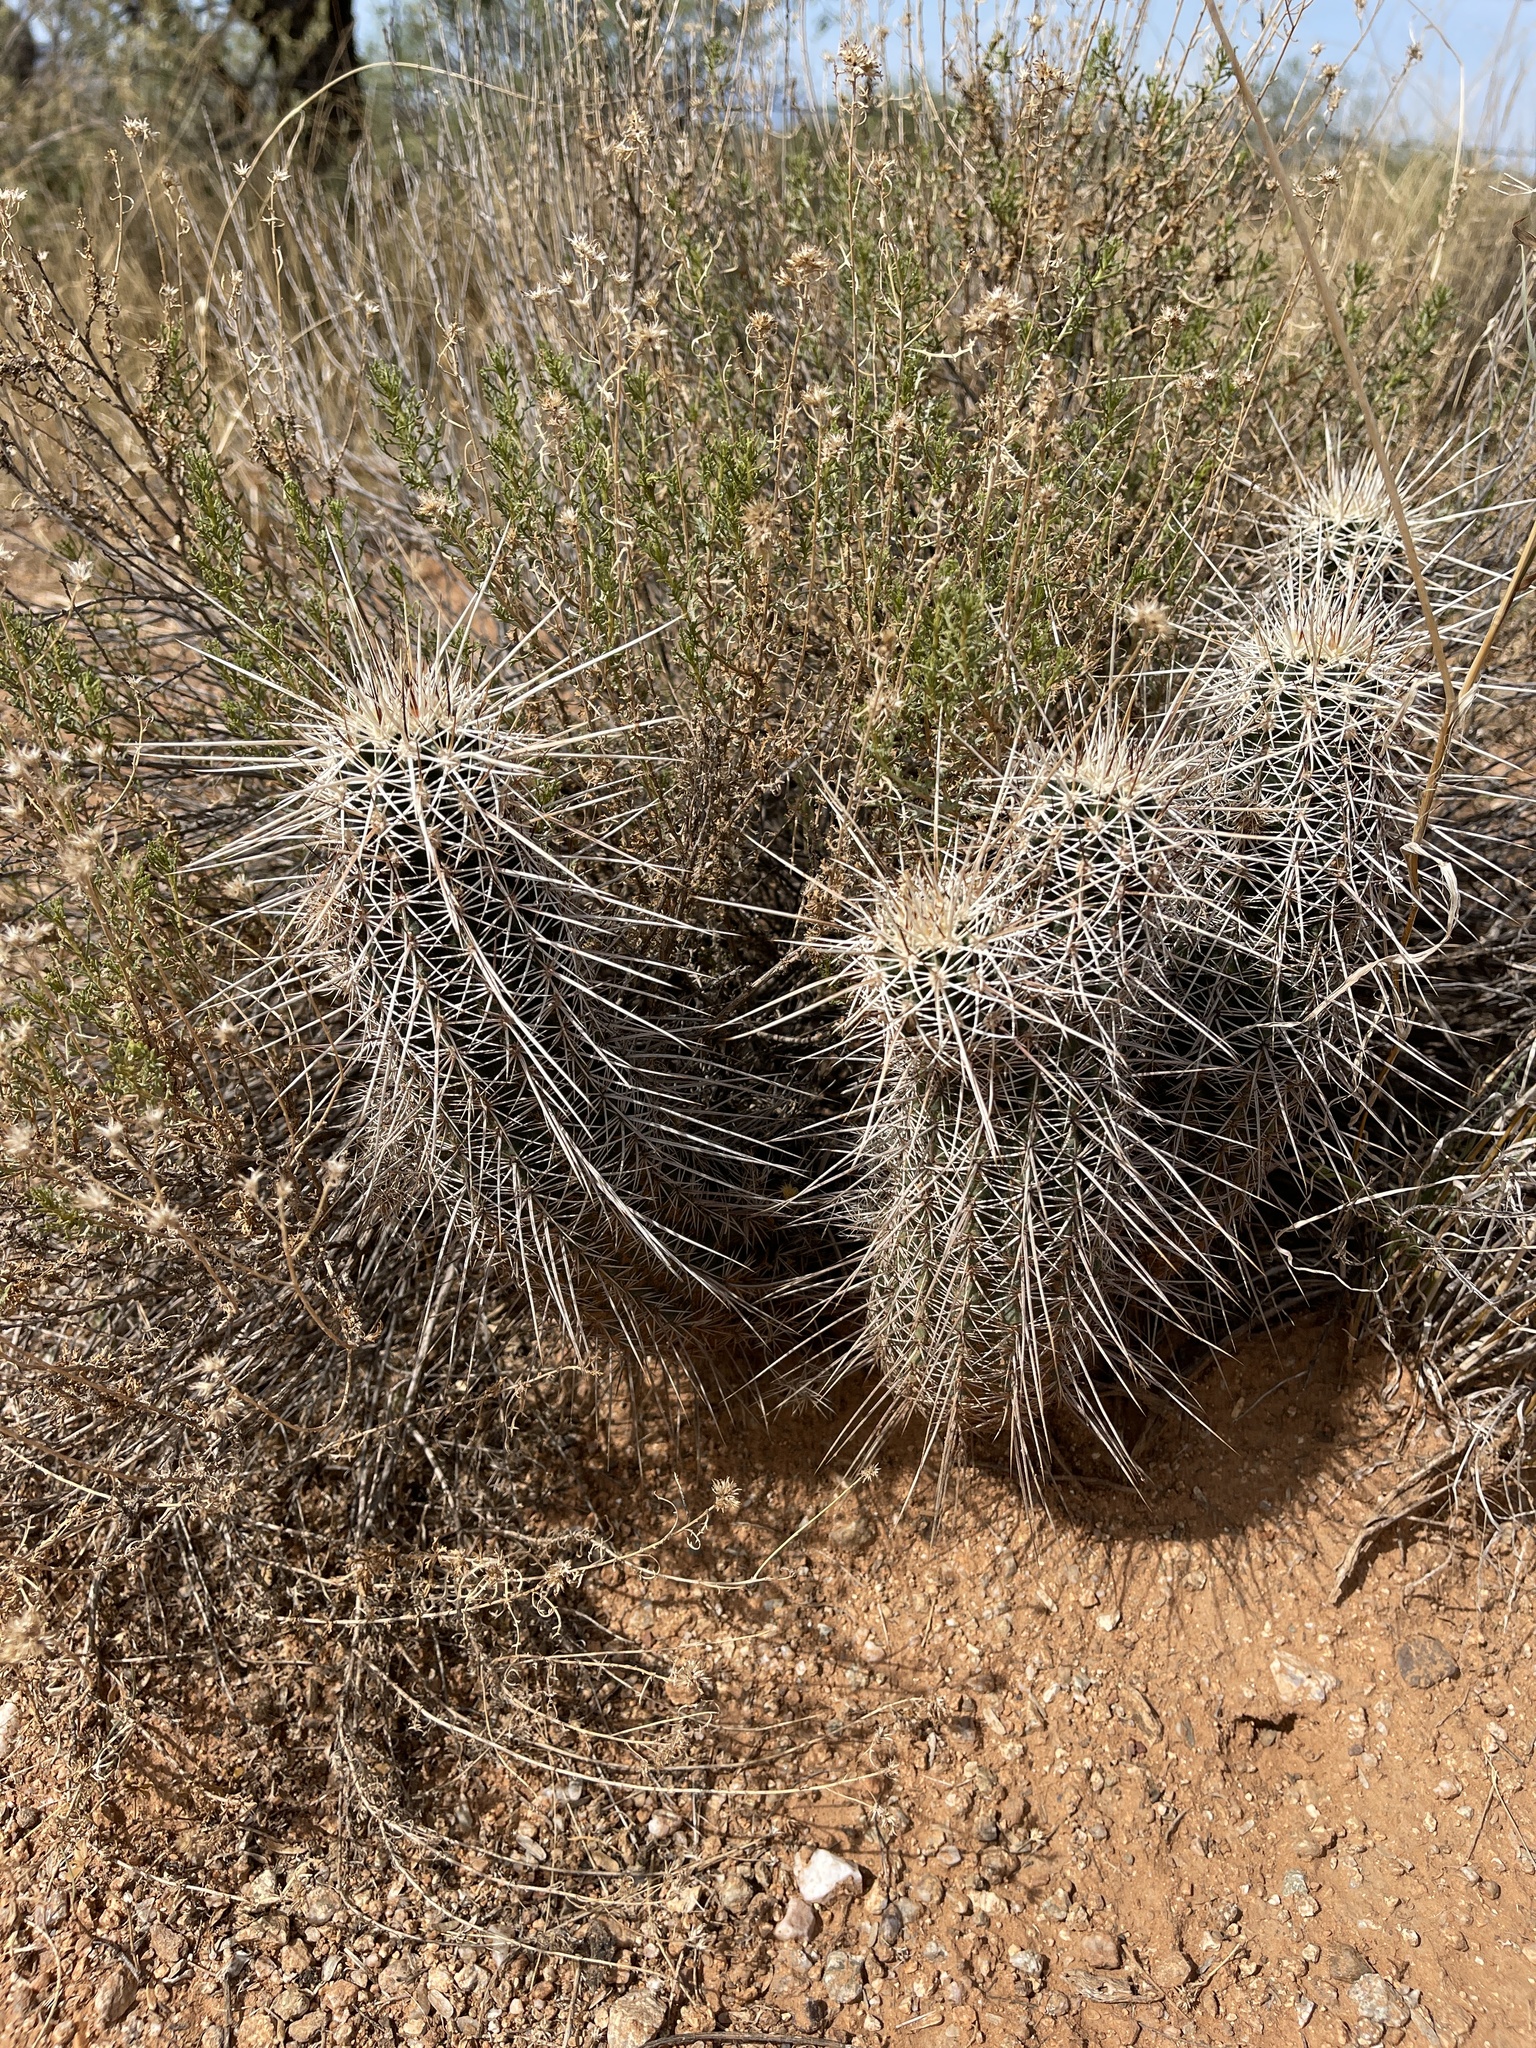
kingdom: Plantae
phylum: Tracheophyta
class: Magnoliopsida
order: Caryophyllales
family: Cactaceae
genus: Echinocereus
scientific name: Echinocereus fasciculatus
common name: Bundle hedgehog
